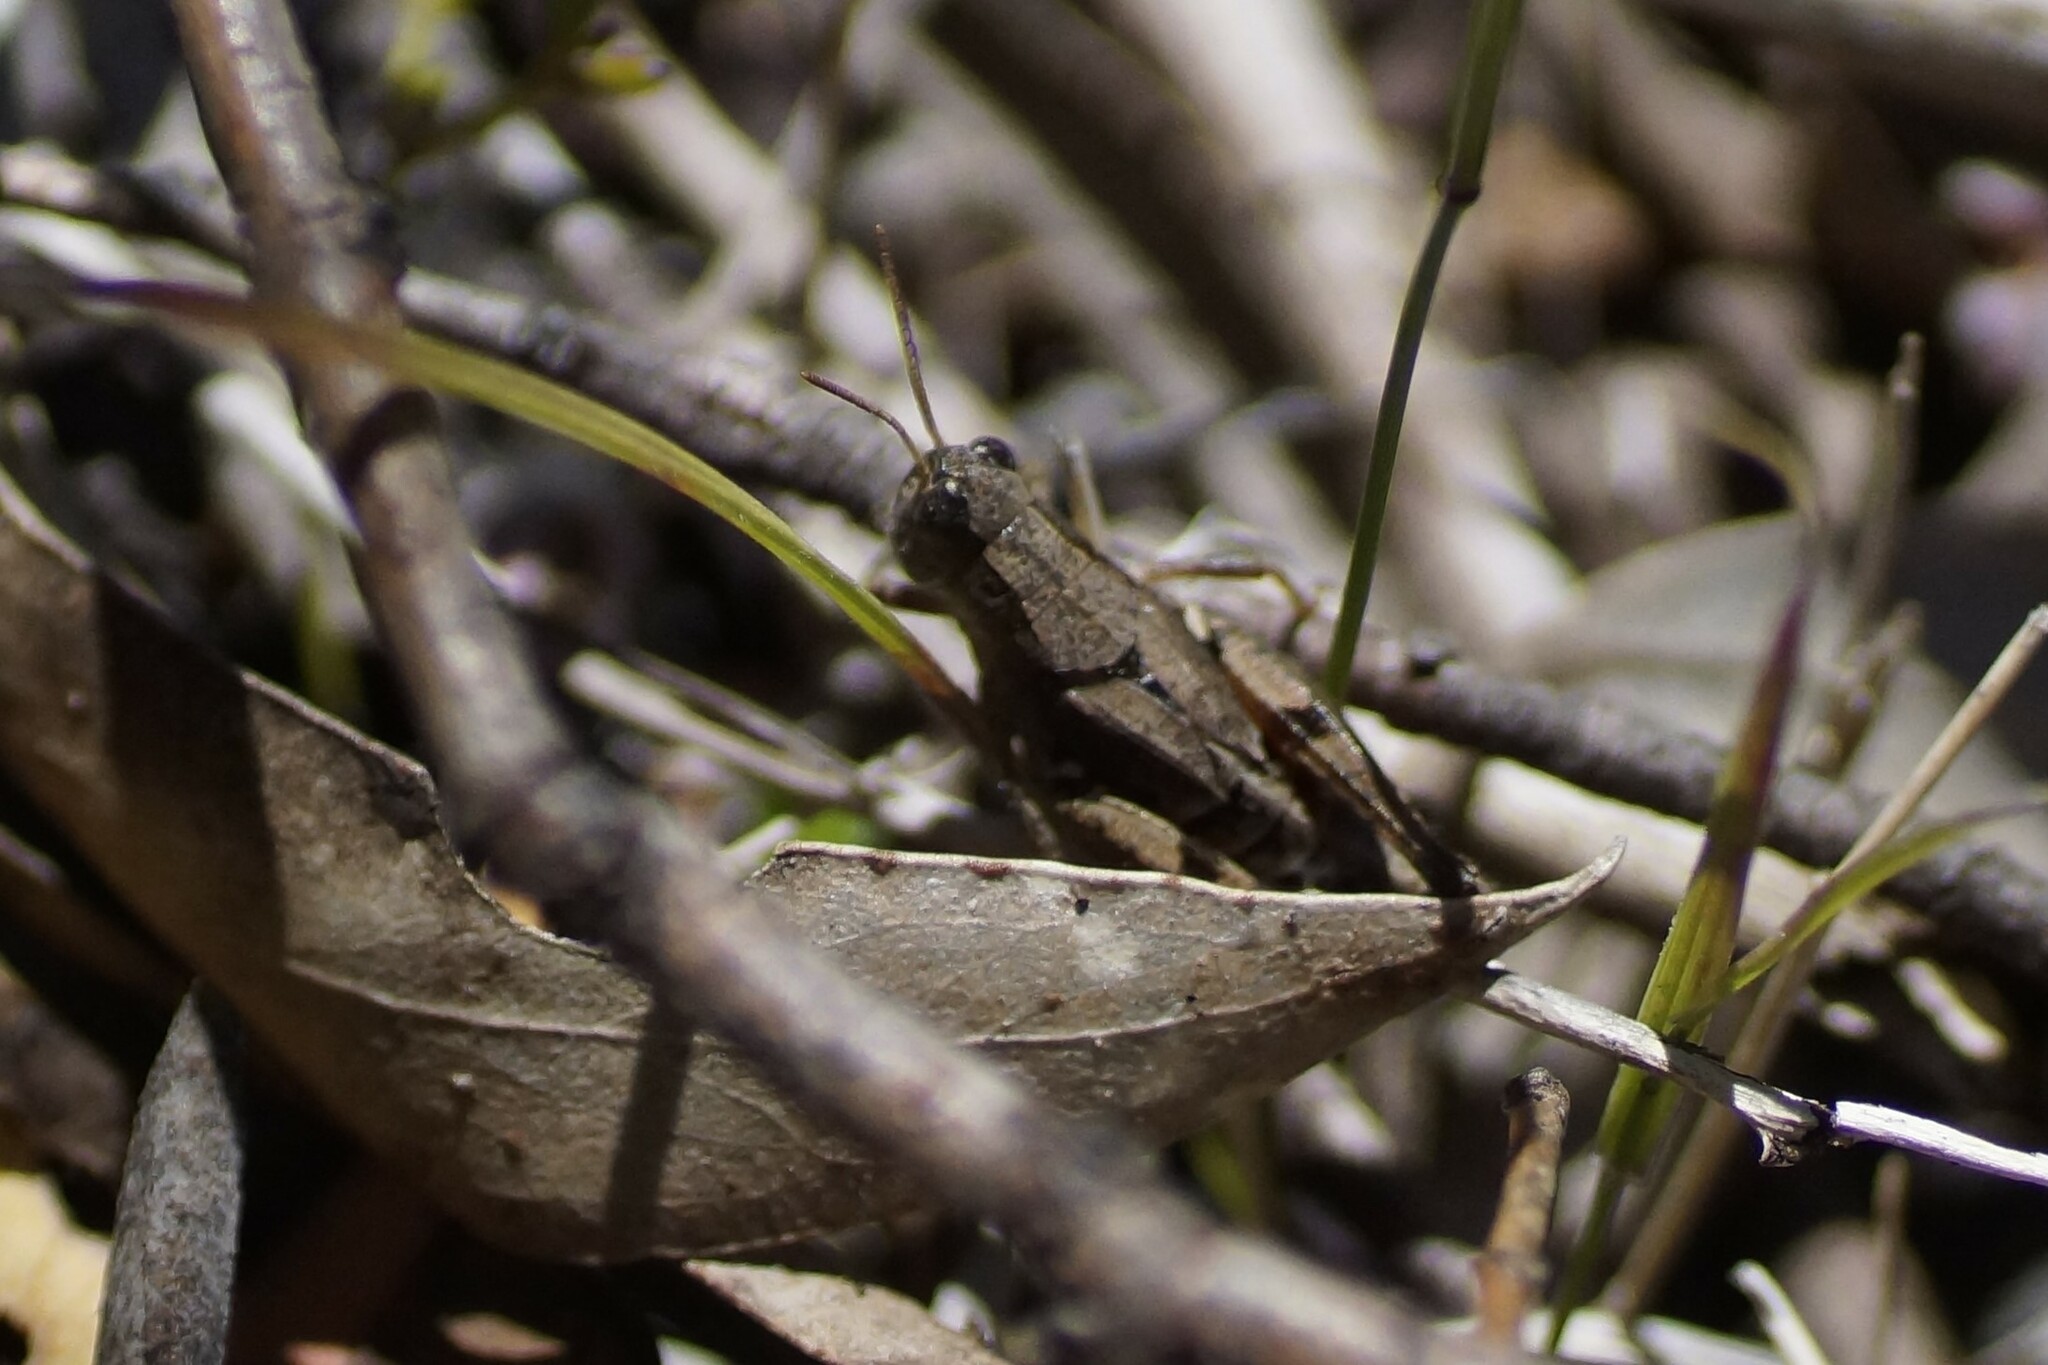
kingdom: Animalia
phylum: Arthropoda
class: Insecta
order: Orthoptera
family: Acrididae
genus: Phaulacridium
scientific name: Phaulacridium vittatum
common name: Wingless grasshopper
